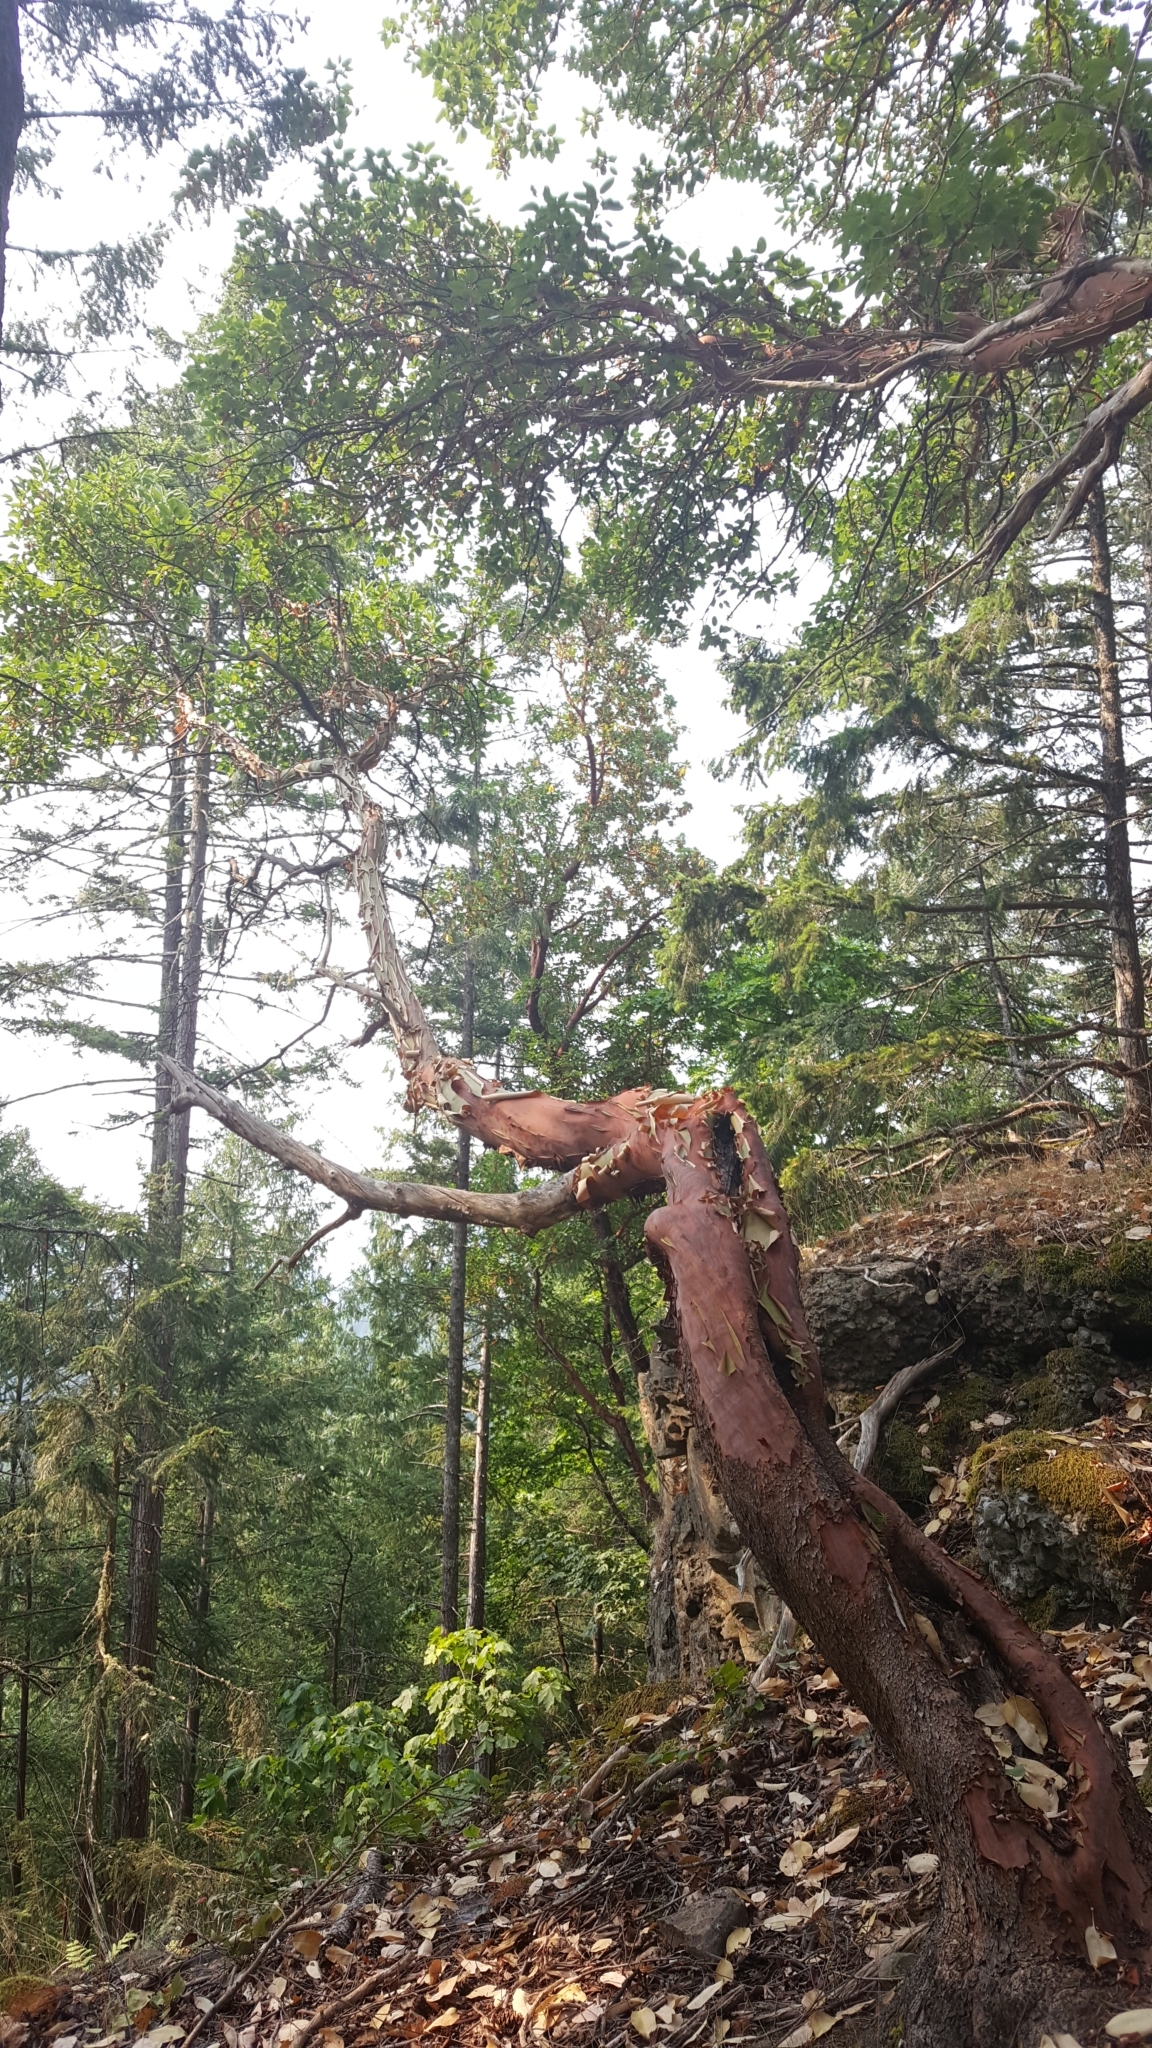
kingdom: Plantae
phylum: Tracheophyta
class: Magnoliopsida
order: Ericales
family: Ericaceae
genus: Arbutus
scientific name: Arbutus menziesii
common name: Pacific madrone
